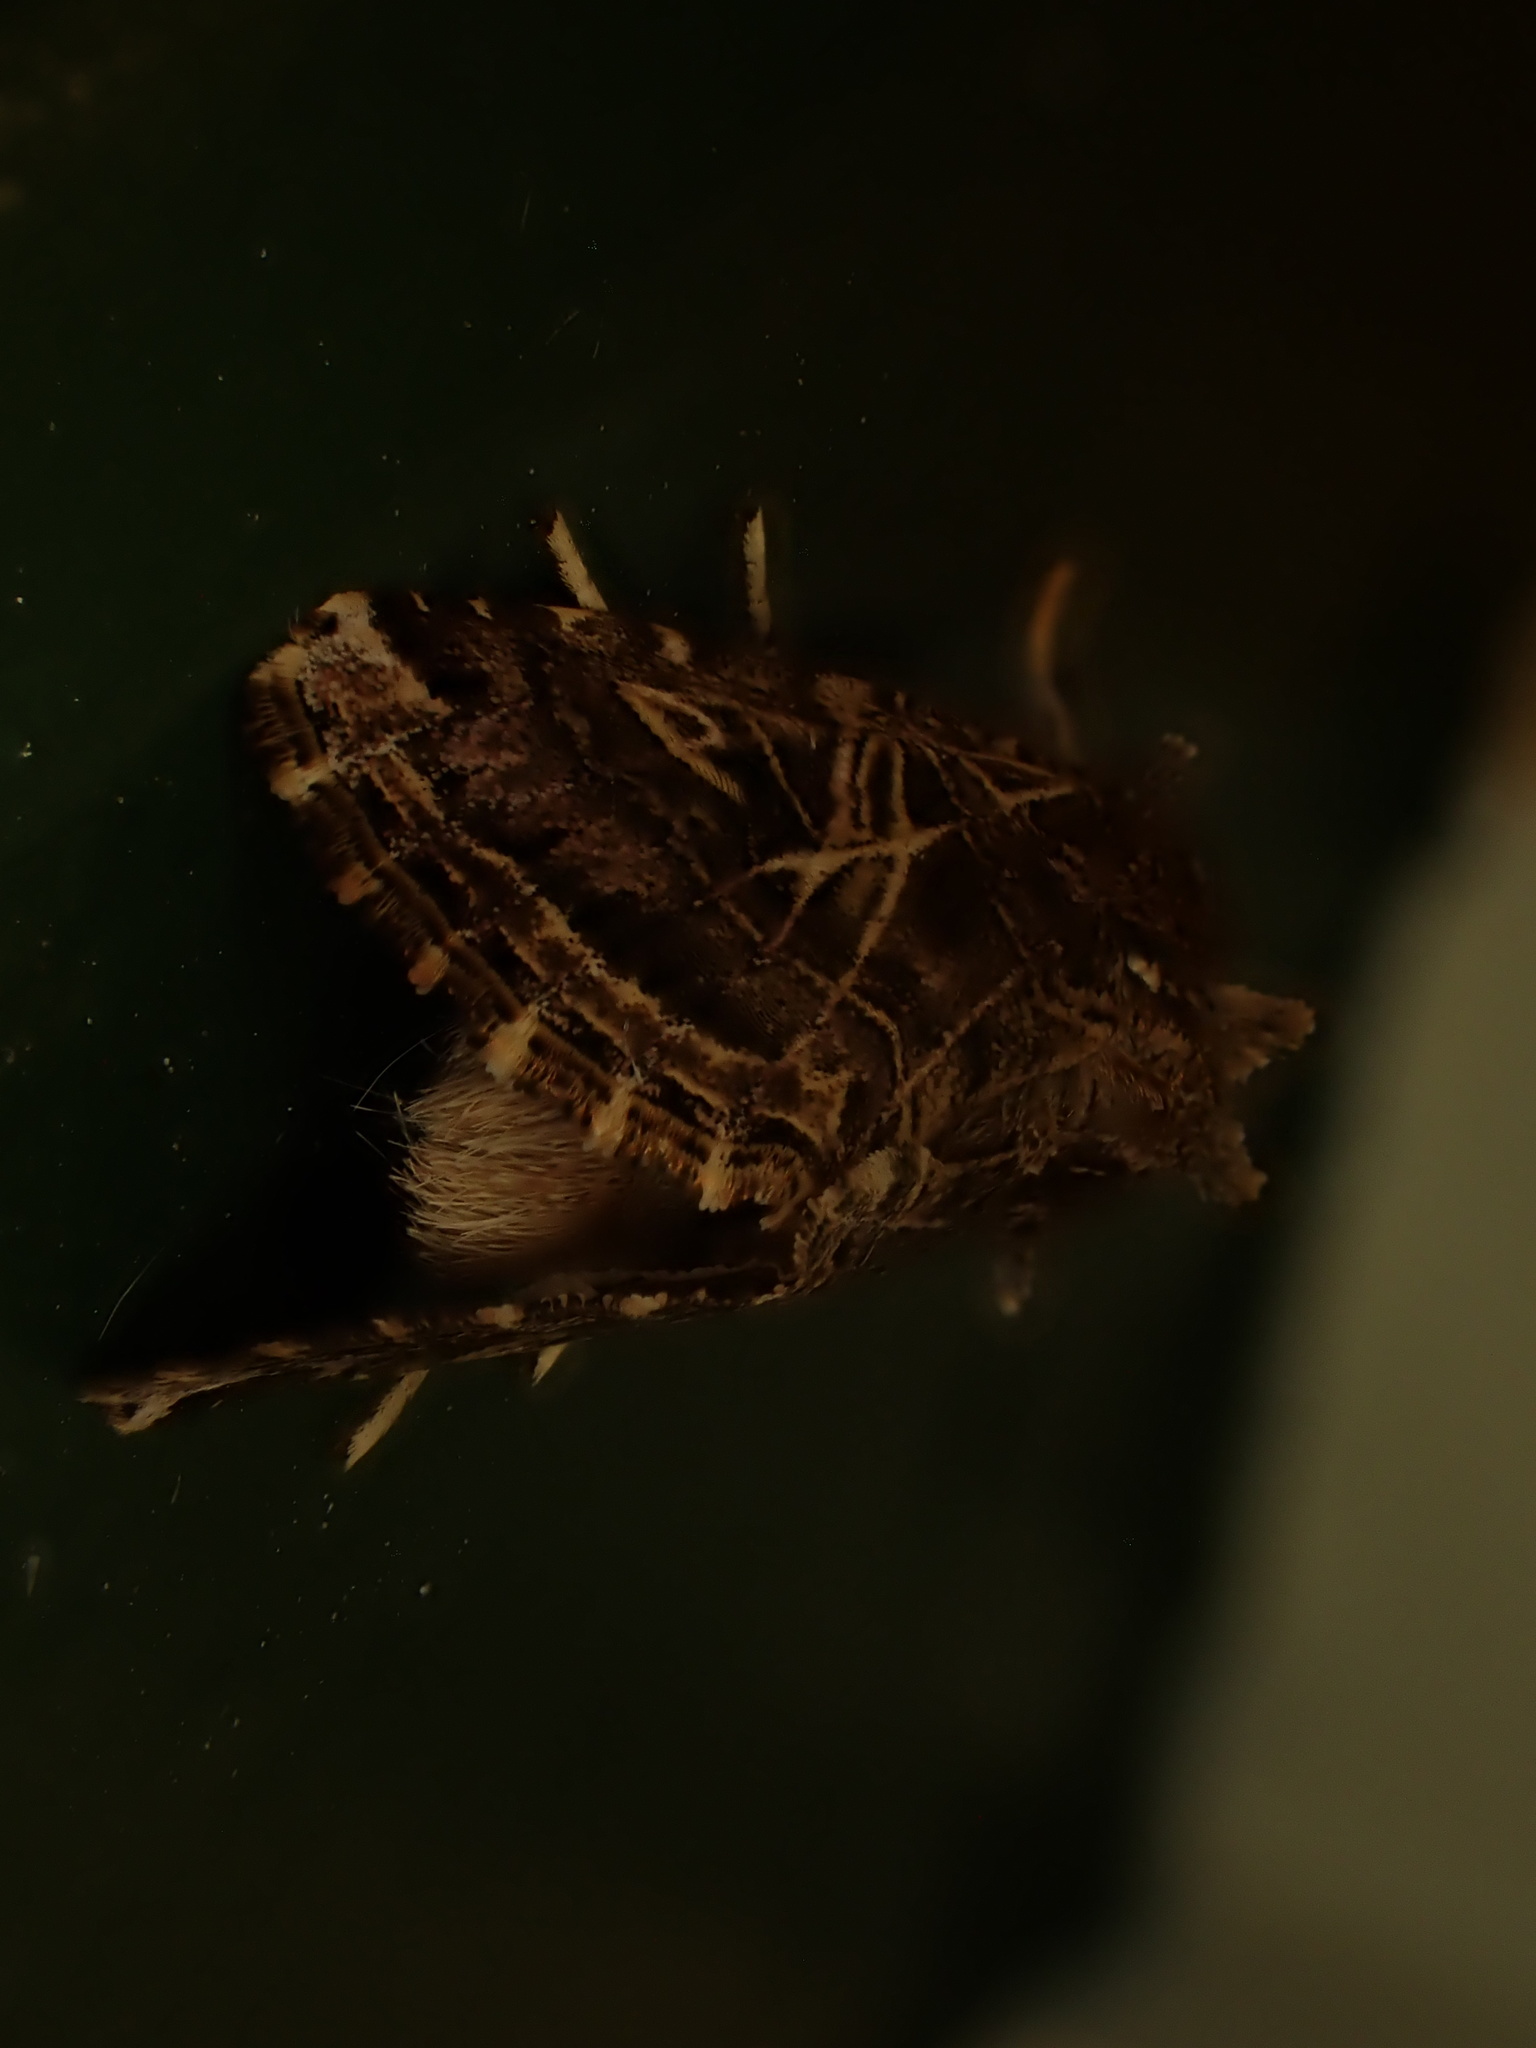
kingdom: Animalia
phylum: Arthropoda
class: Insecta
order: Lepidoptera
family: Noctuidae
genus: Spodoptera
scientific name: Spodoptera litura
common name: Asian cotton leafworm
